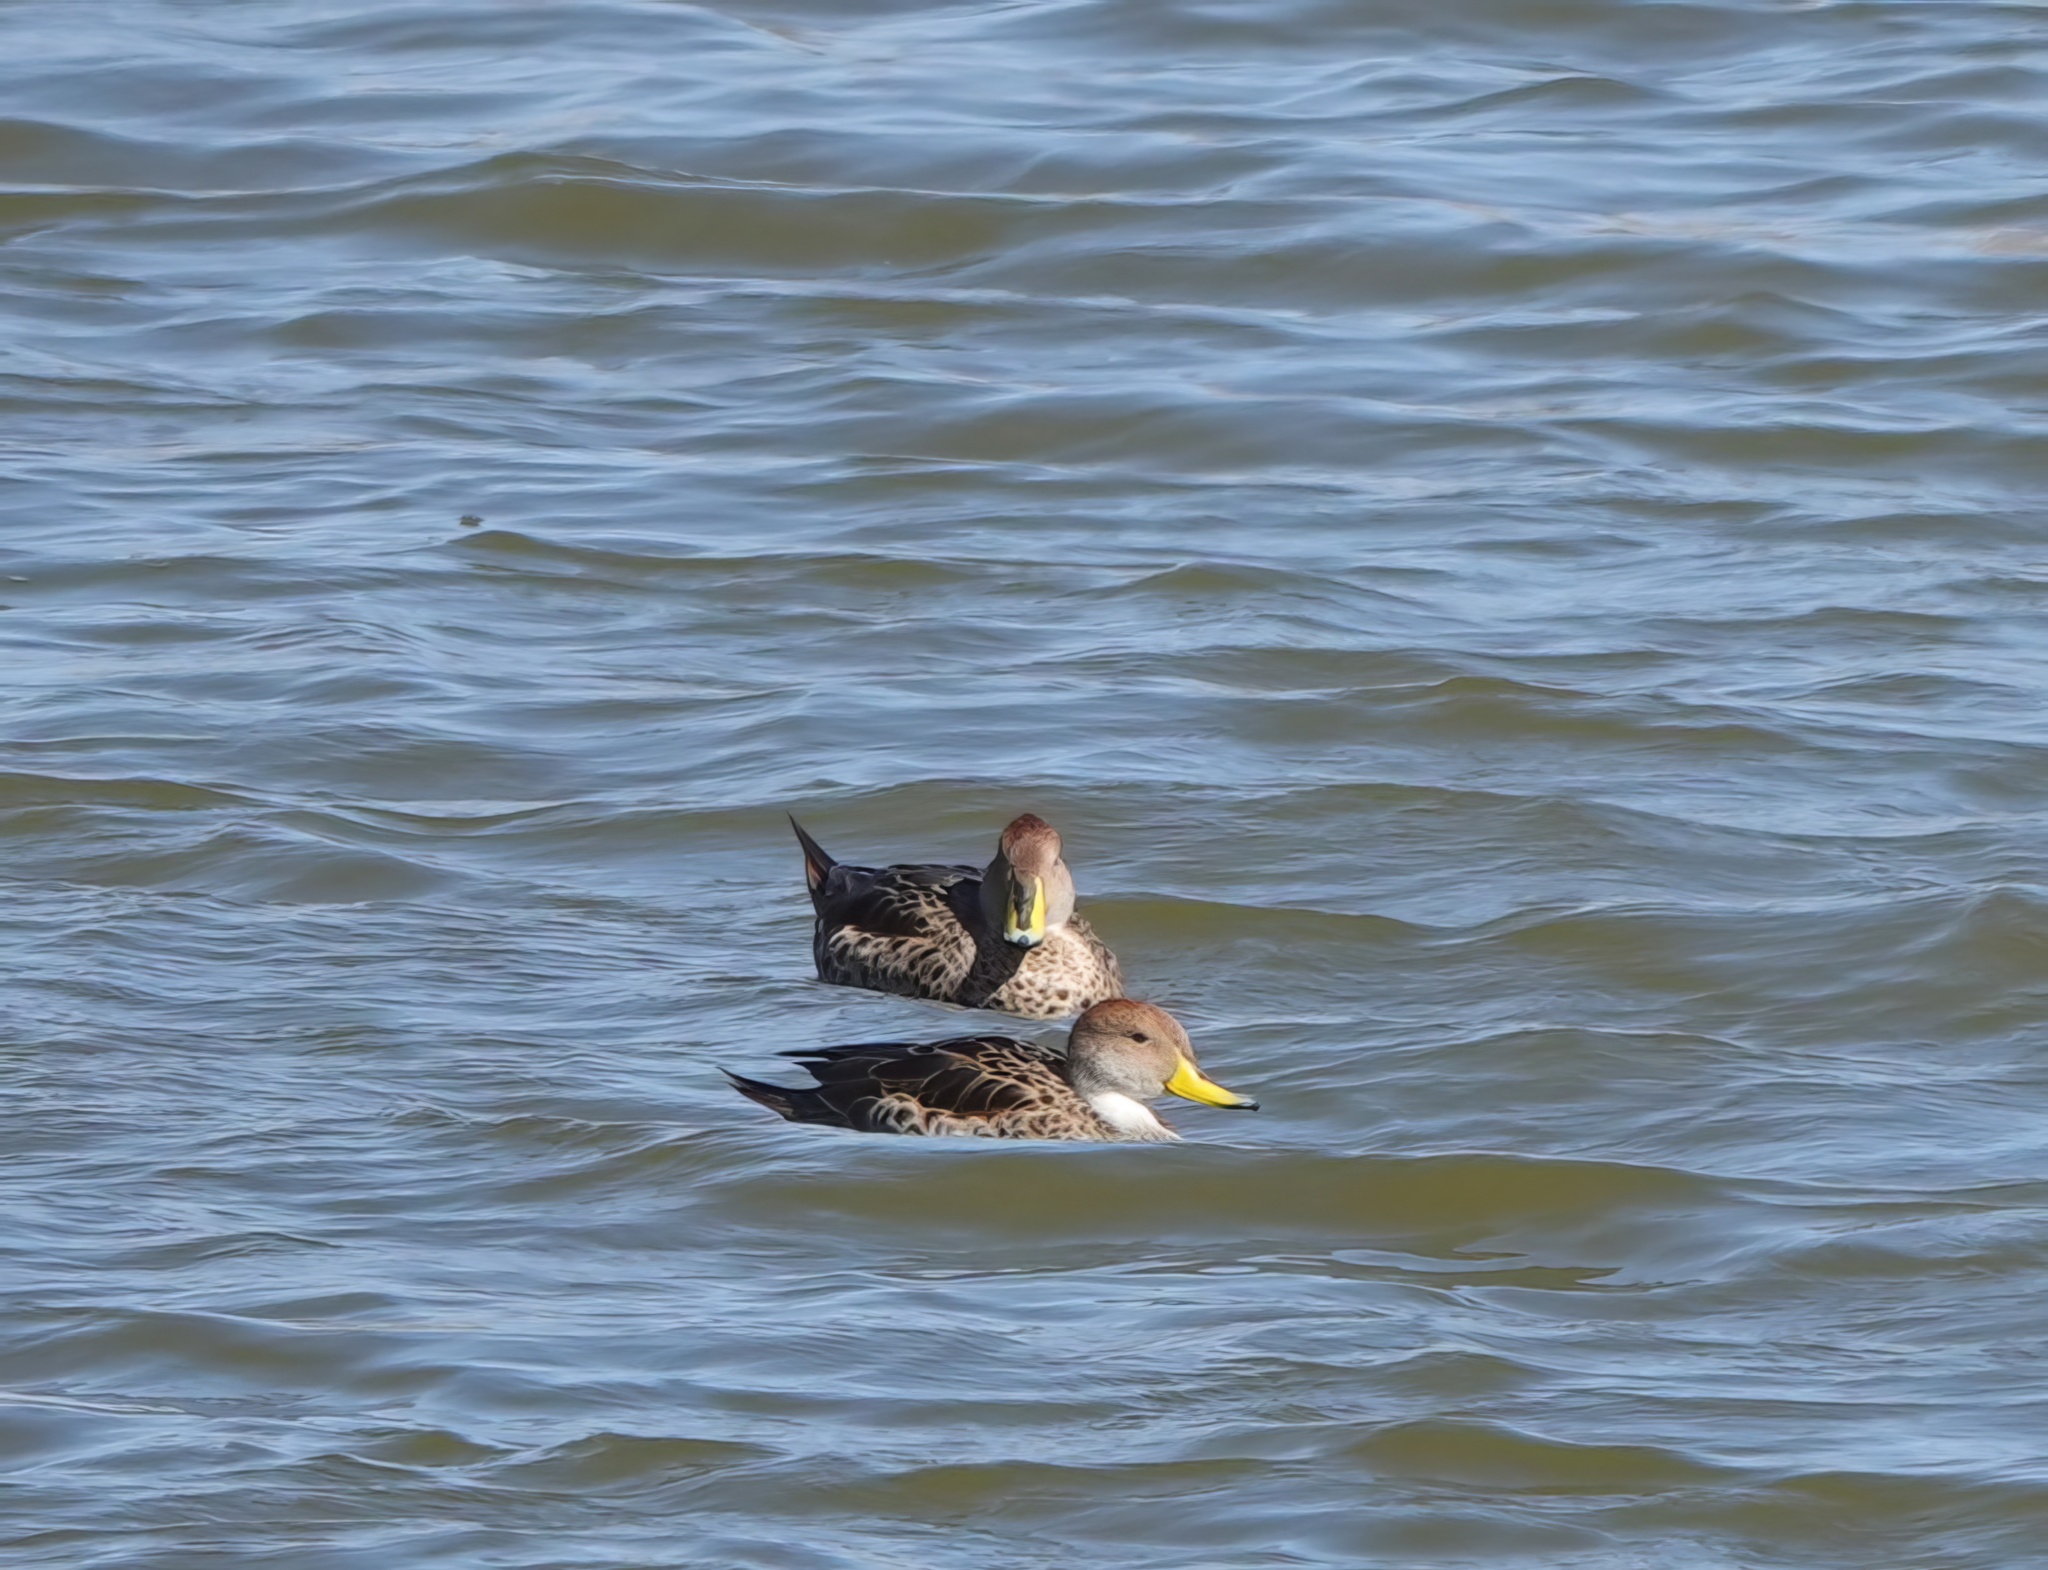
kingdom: Animalia
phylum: Chordata
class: Aves
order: Anseriformes
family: Anatidae
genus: Anas
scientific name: Anas georgica
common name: Yellow-billed pintail
